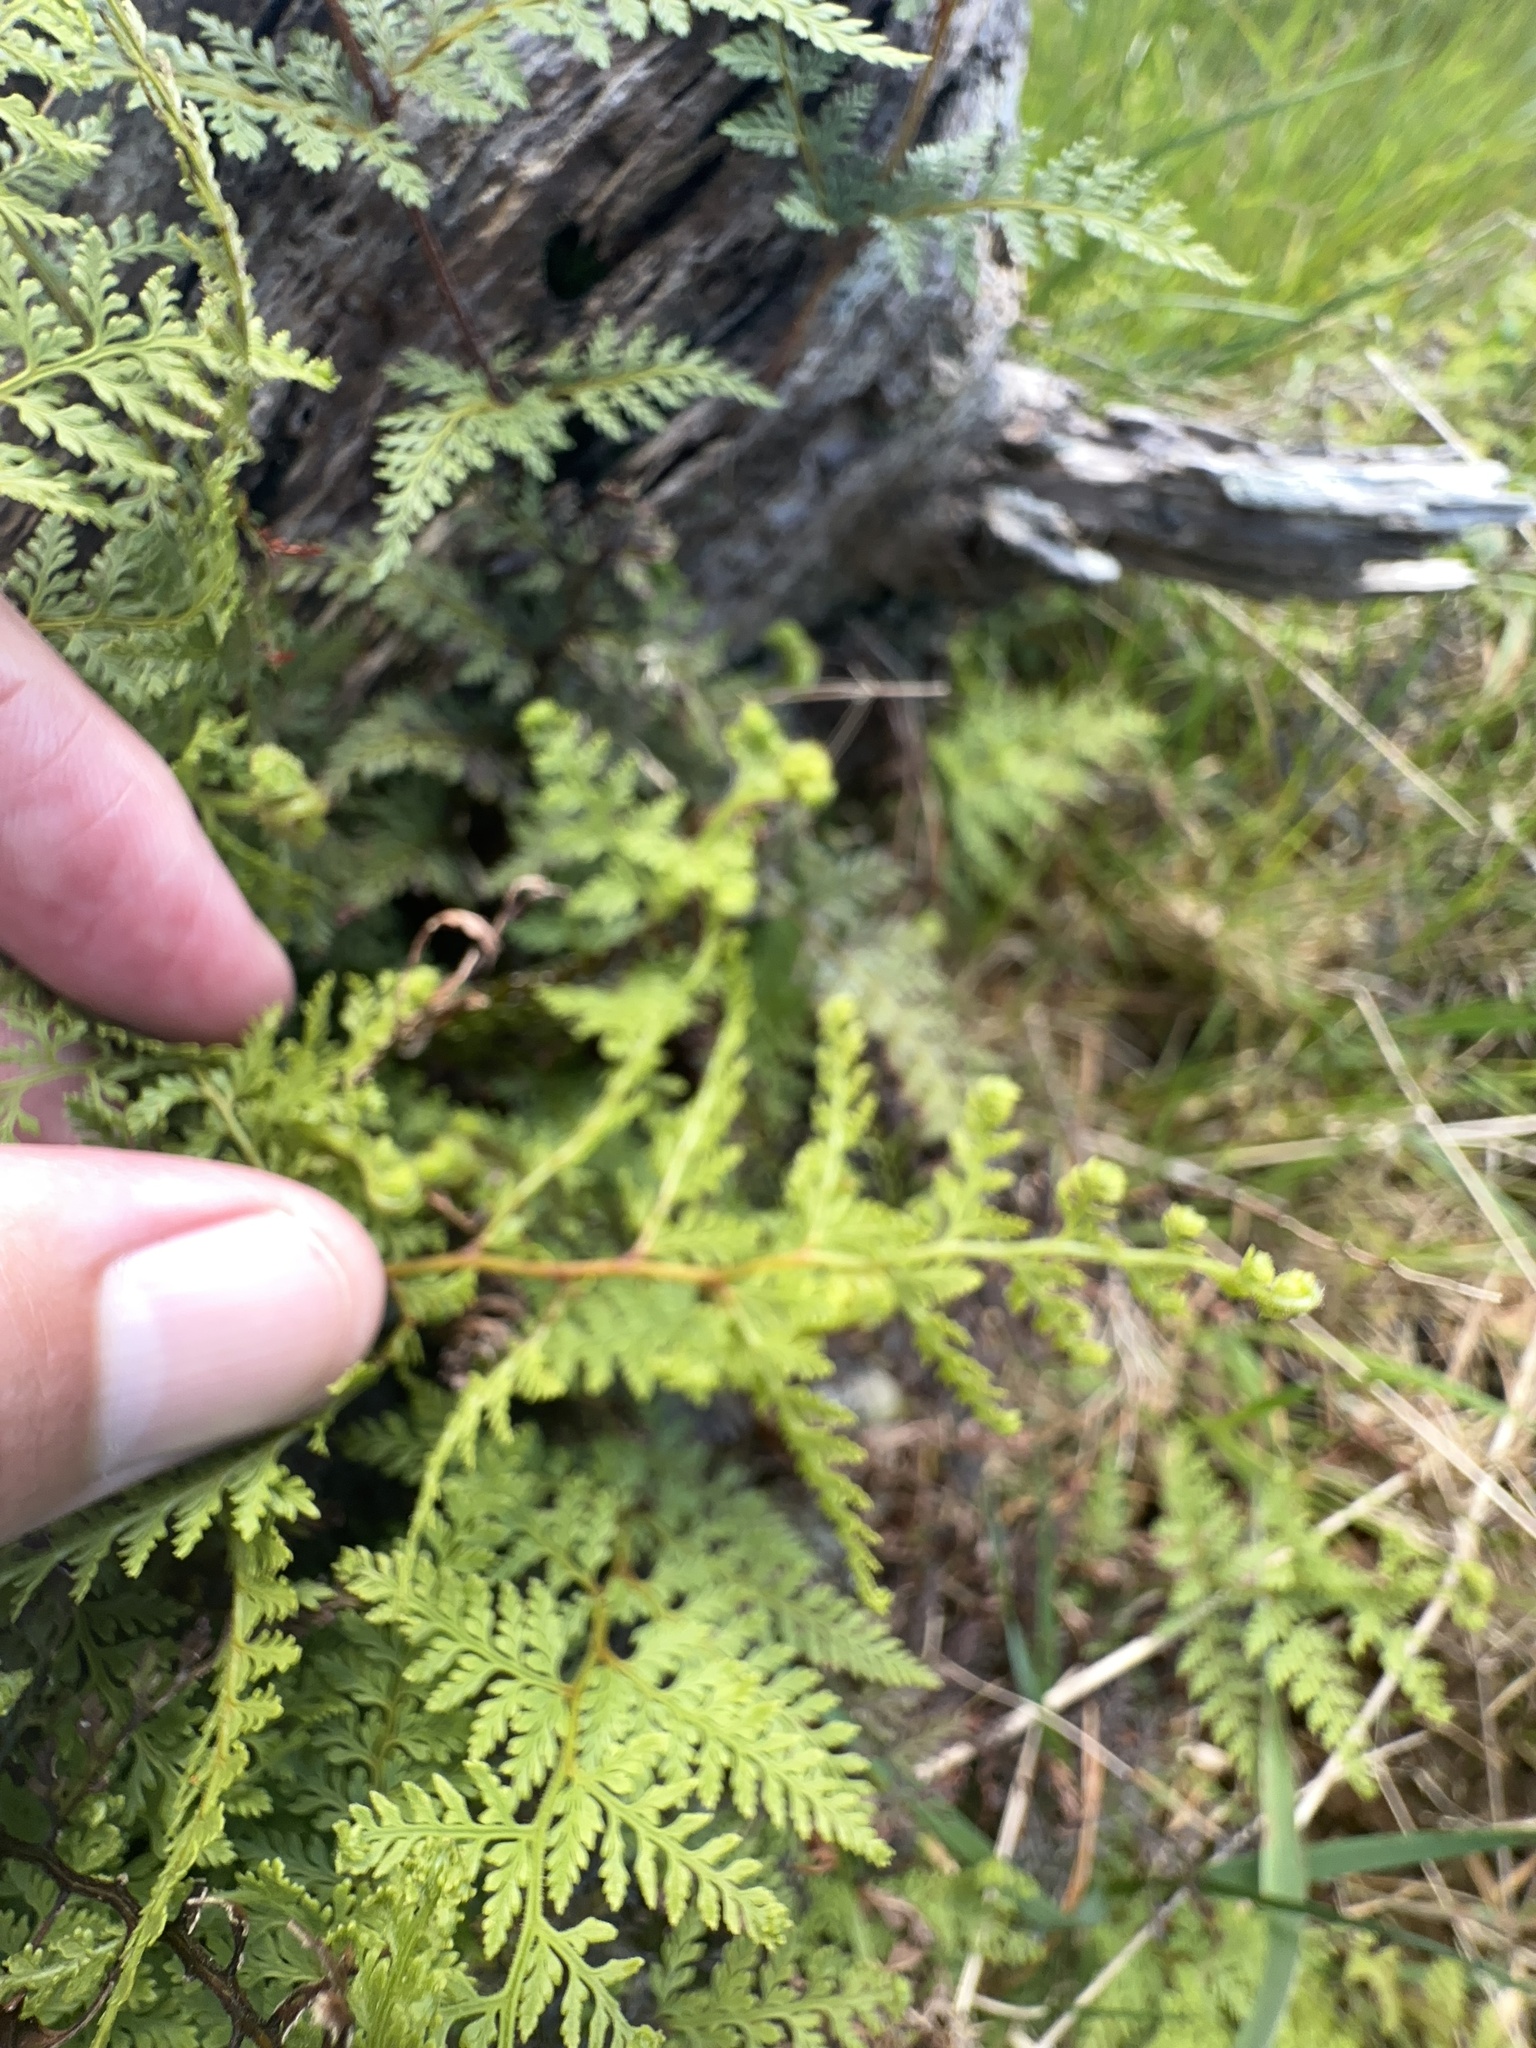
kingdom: Plantae
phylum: Tracheophyta
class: Polypodiopsida
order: Polypodiales
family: Dennstaedtiaceae
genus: Paesia
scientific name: Paesia scaberula
